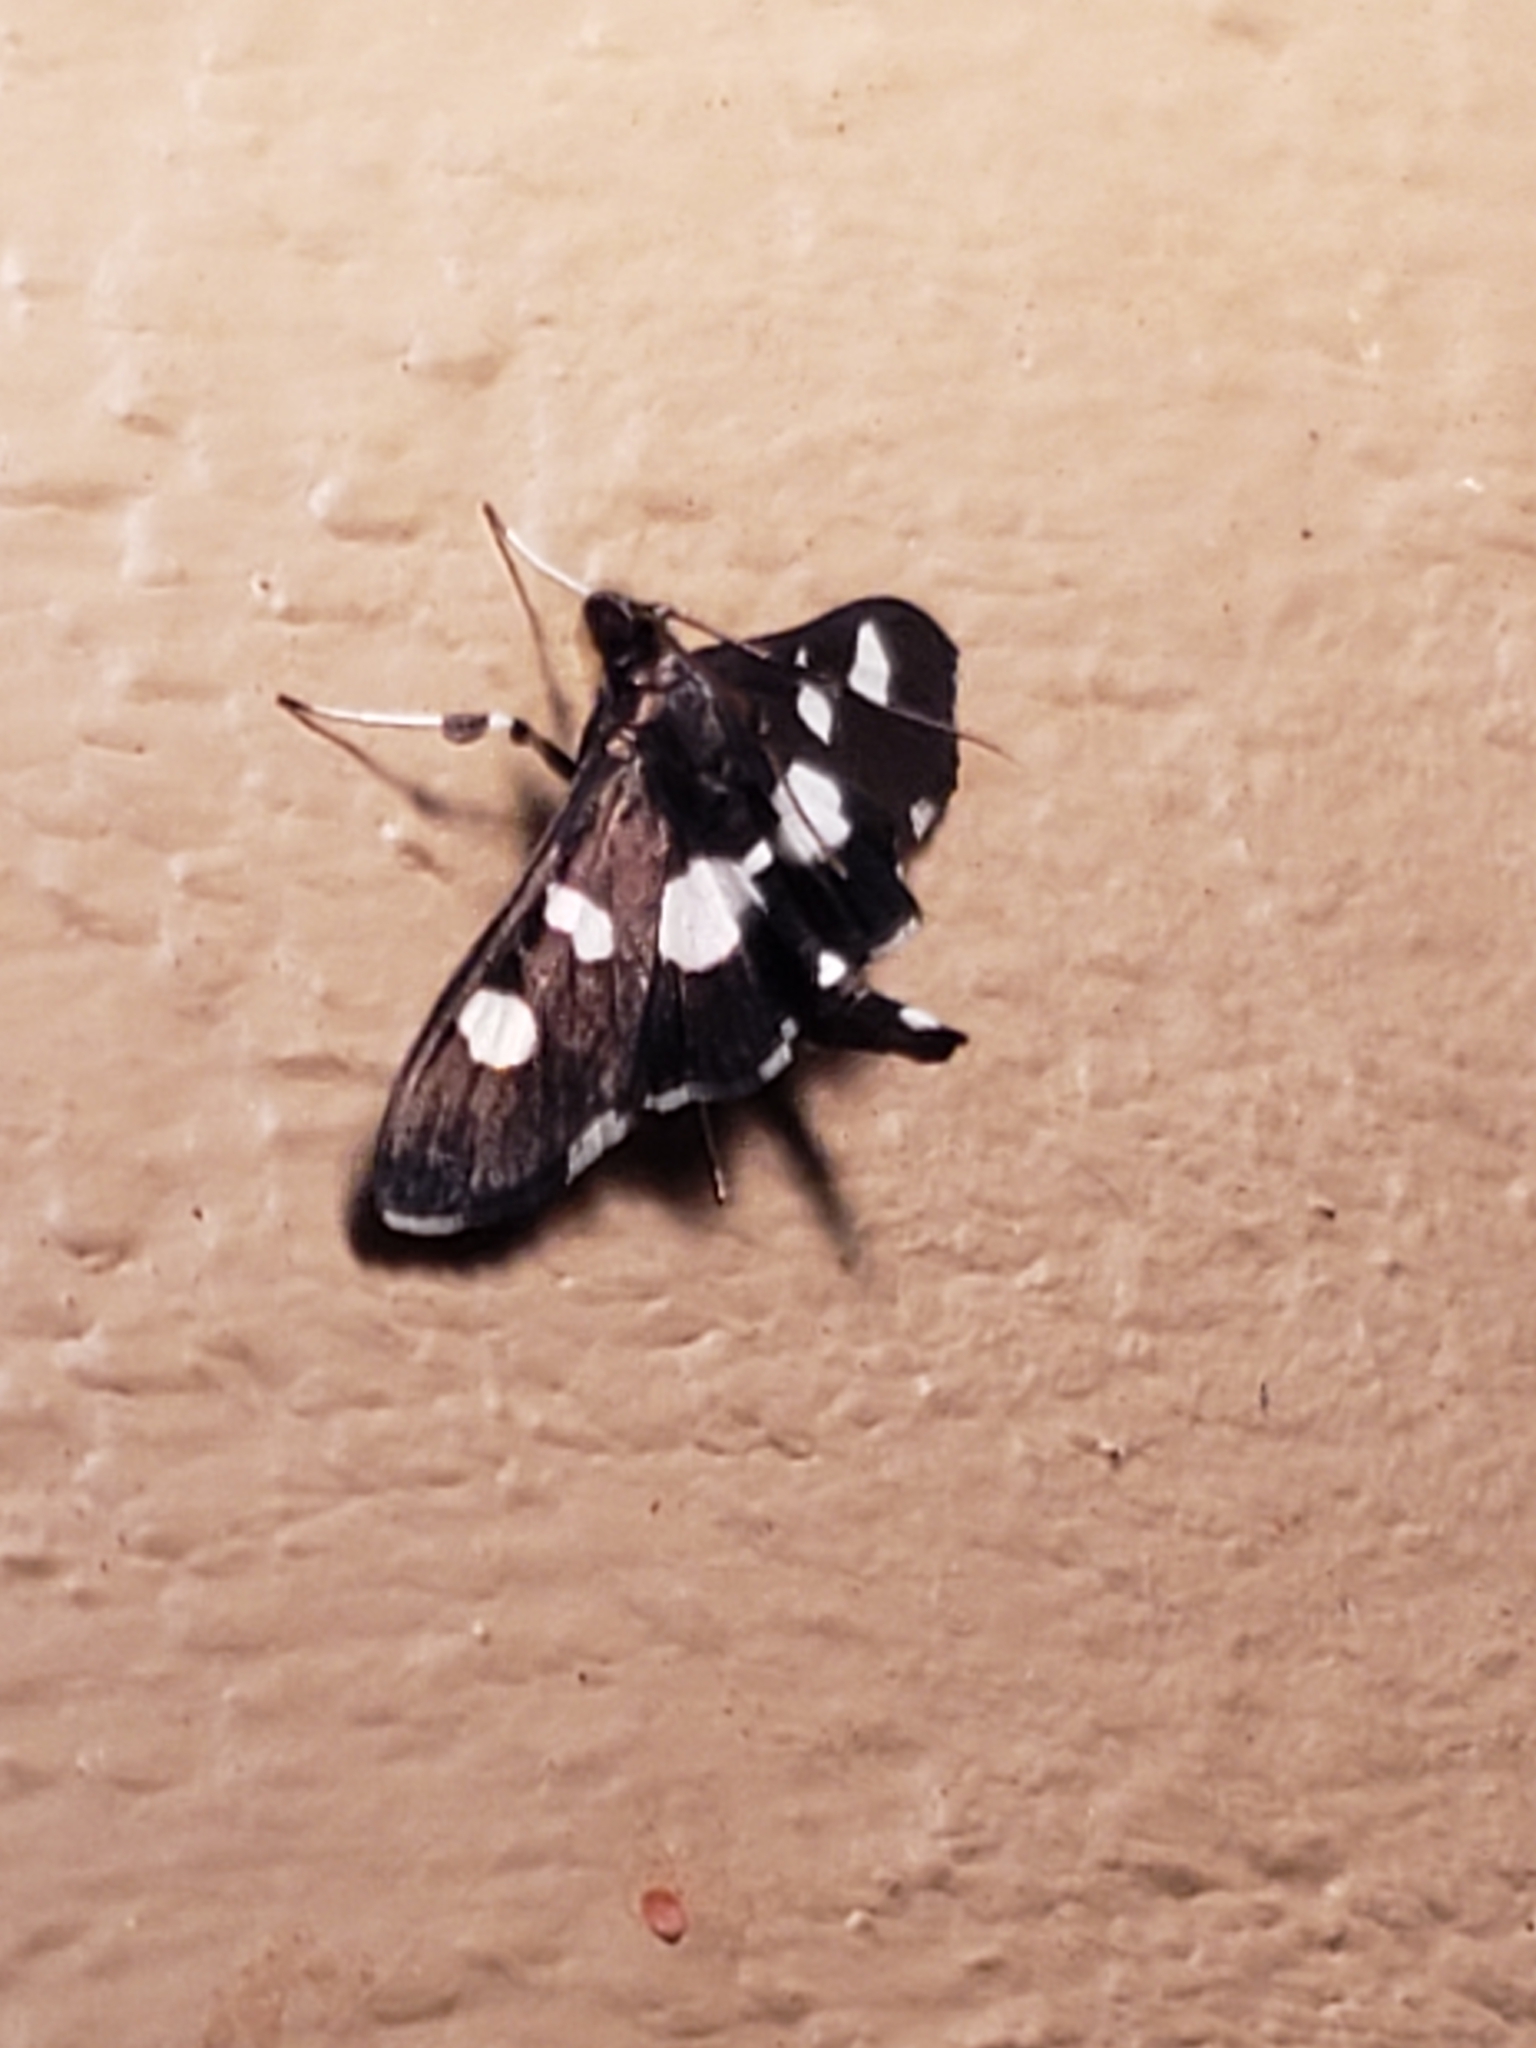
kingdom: Animalia
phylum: Arthropoda
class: Insecta
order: Lepidoptera
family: Crambidae
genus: Desmia
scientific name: Desmia
